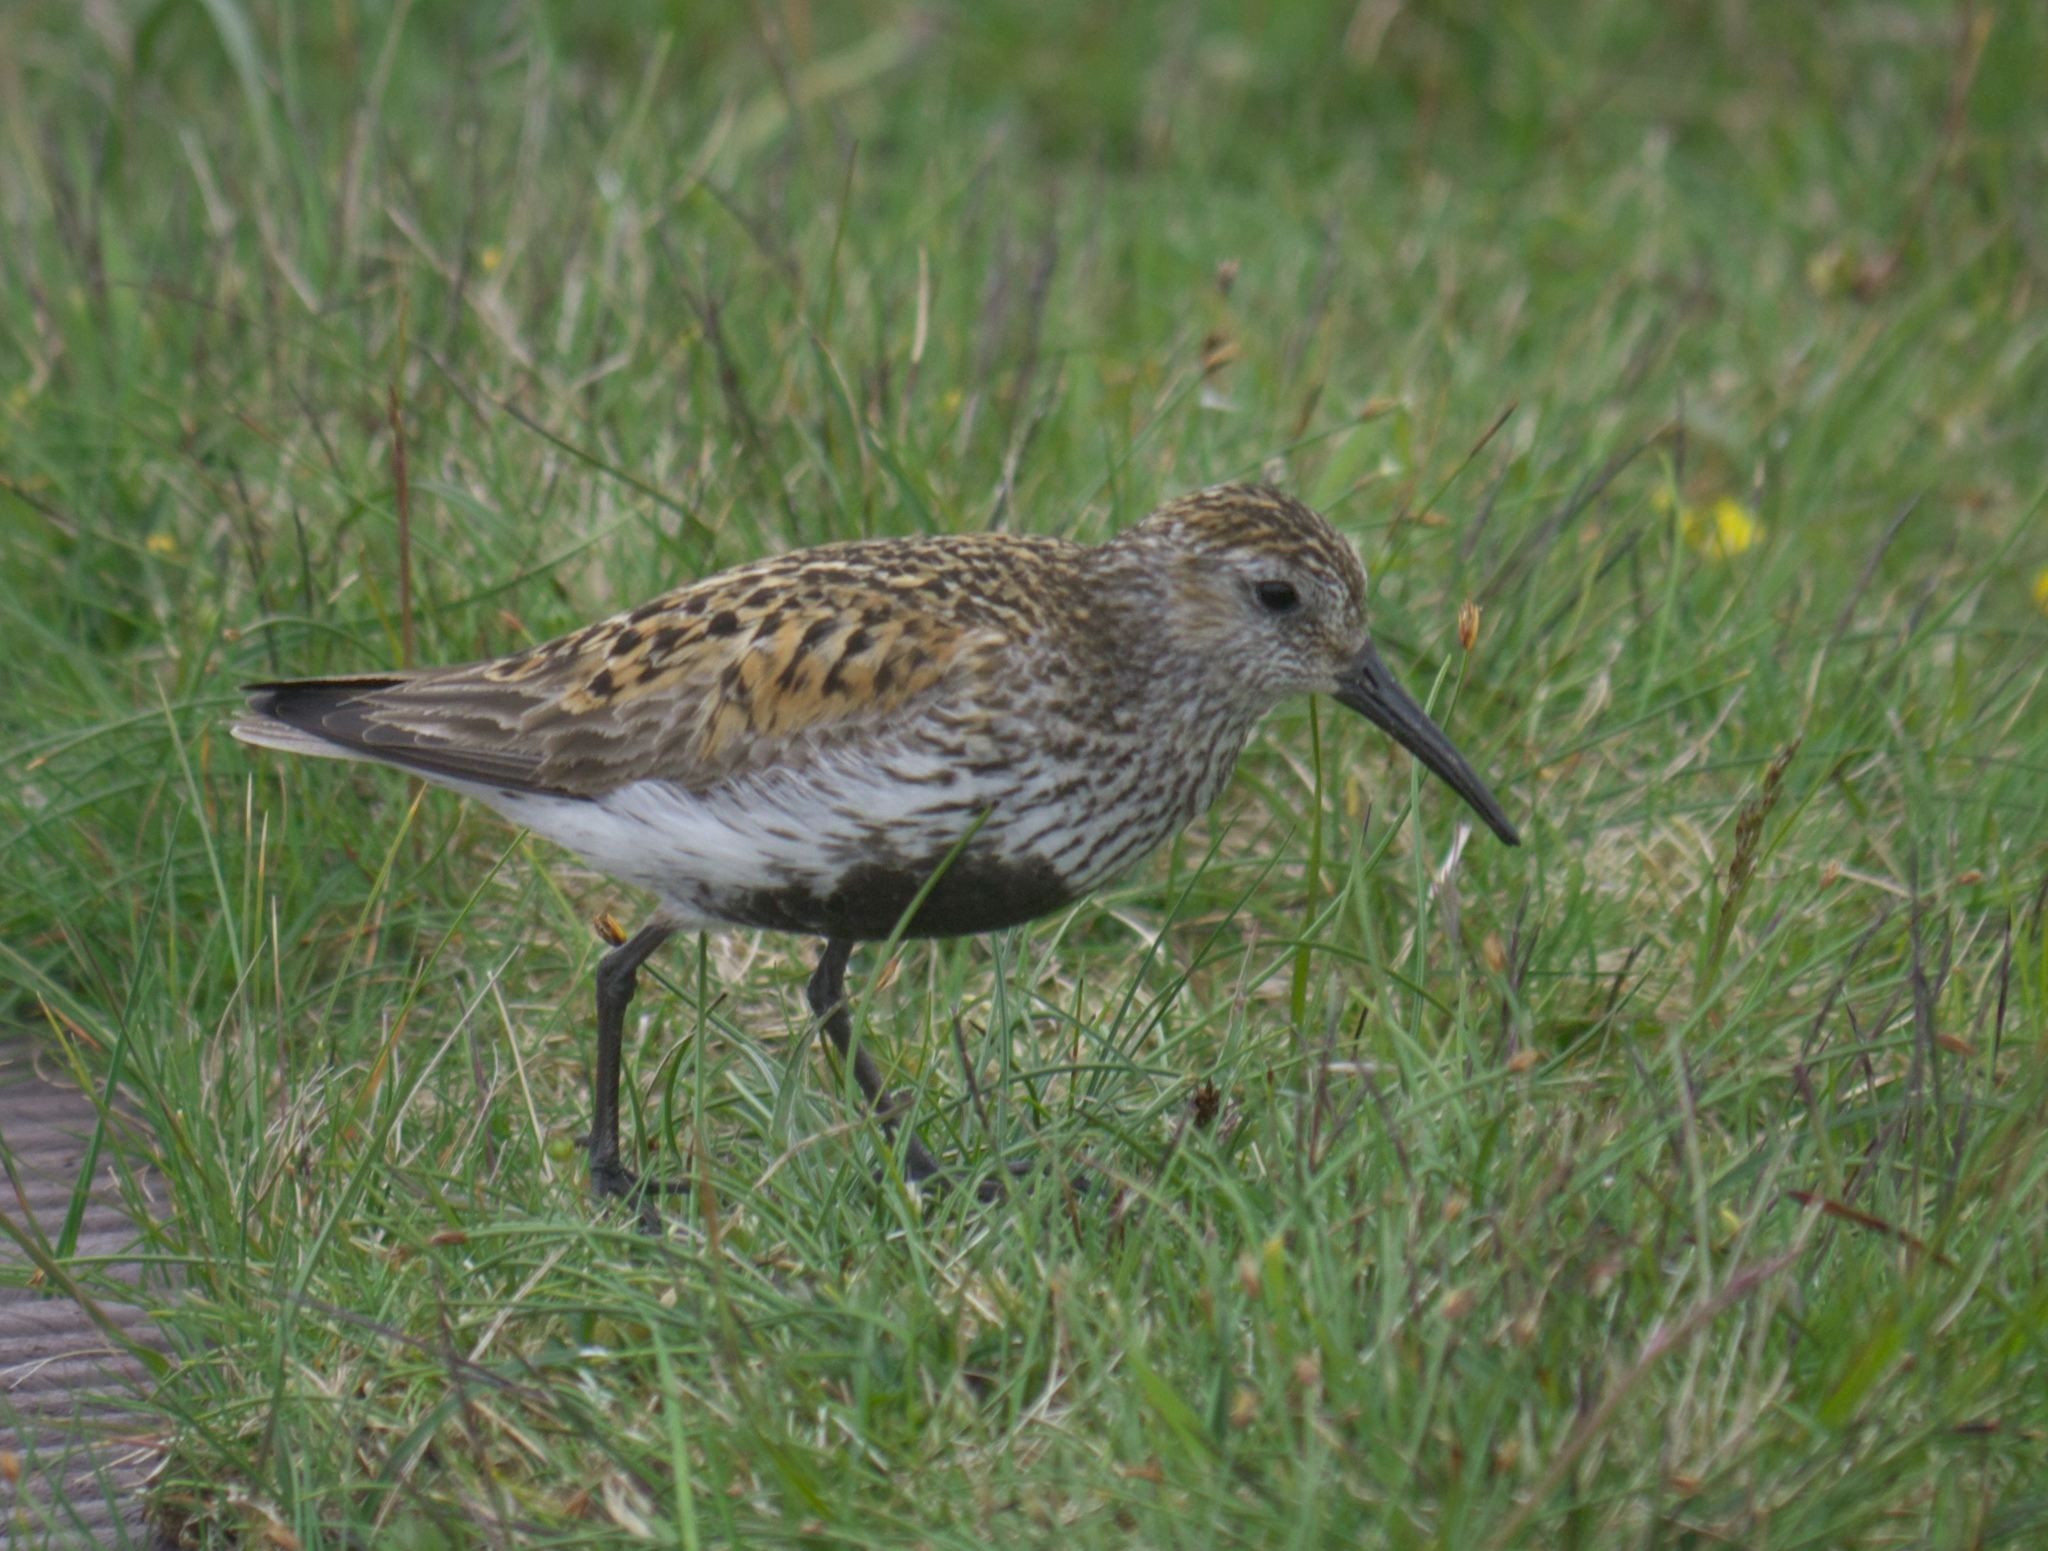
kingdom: Animalia
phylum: Chordata
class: Aves
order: Charadriiformes
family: Scolopacidae
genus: Calidris
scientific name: Calidris alpina
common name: Dunlin
